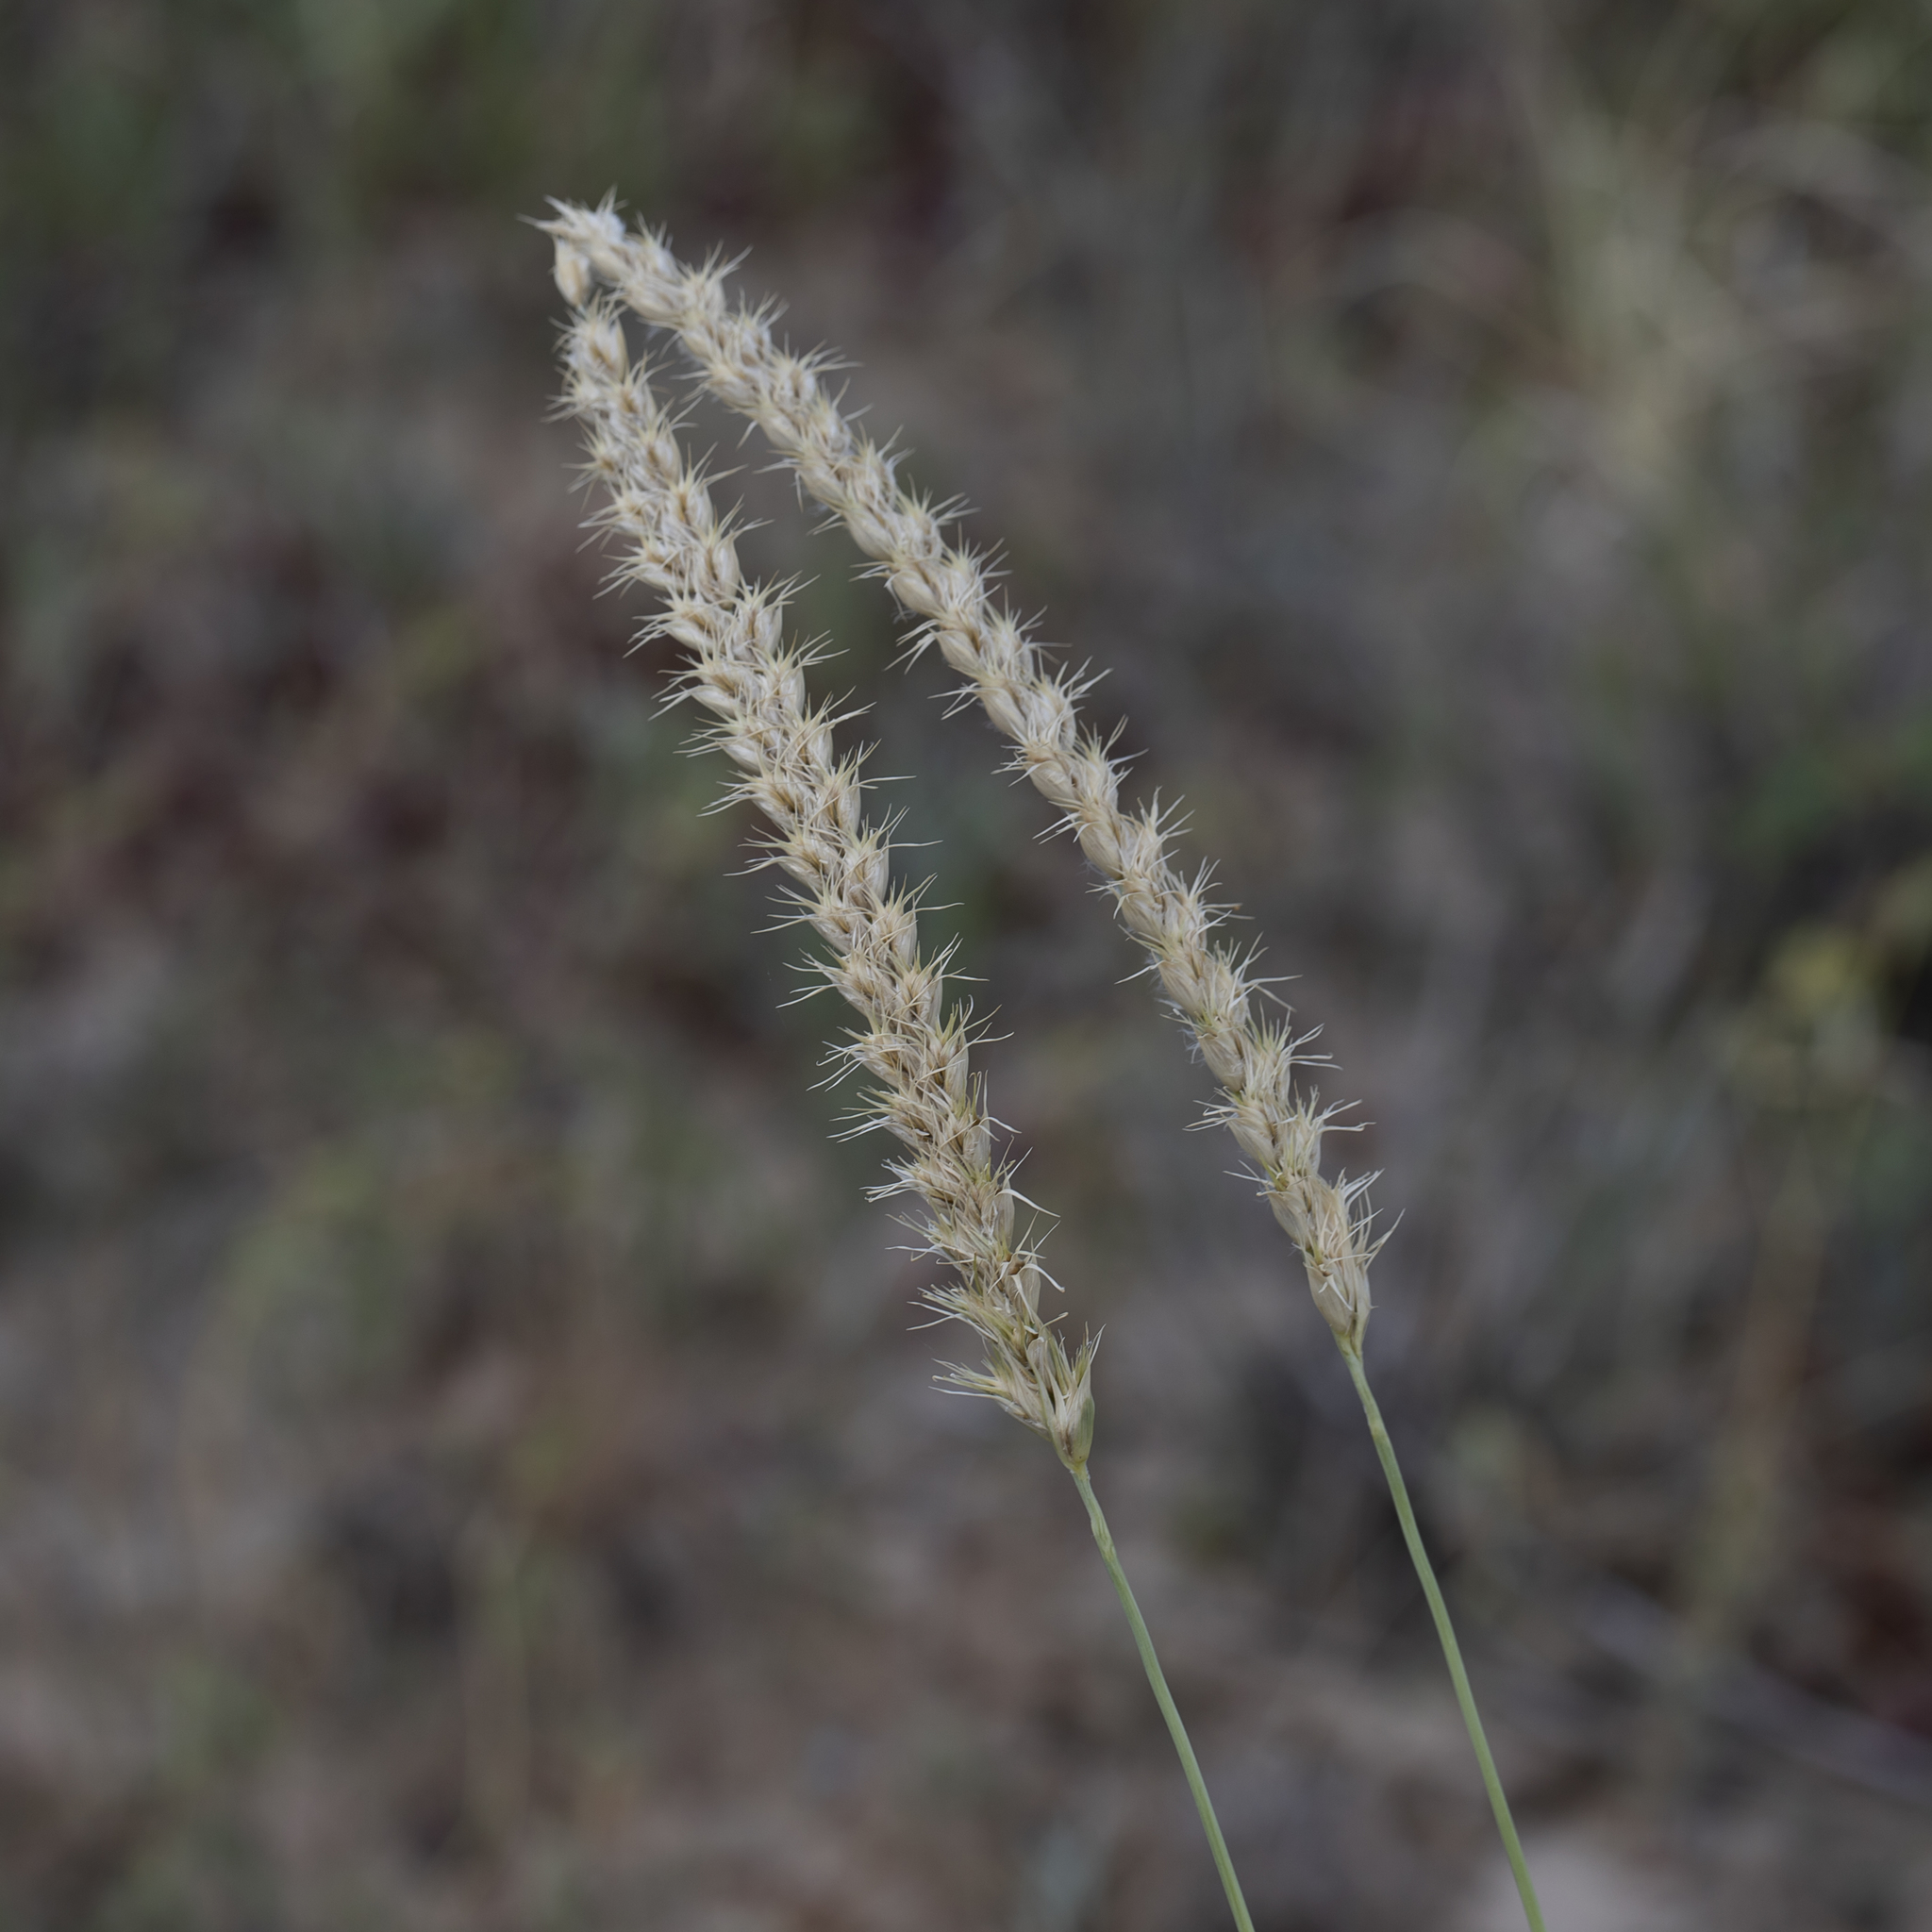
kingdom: Plantae
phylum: Tracheophyta
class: Liliopsida
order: Poales
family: Poaceae
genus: Astrebla
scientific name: Astrebla squarrosa
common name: Wheat-ear mitchell grass
